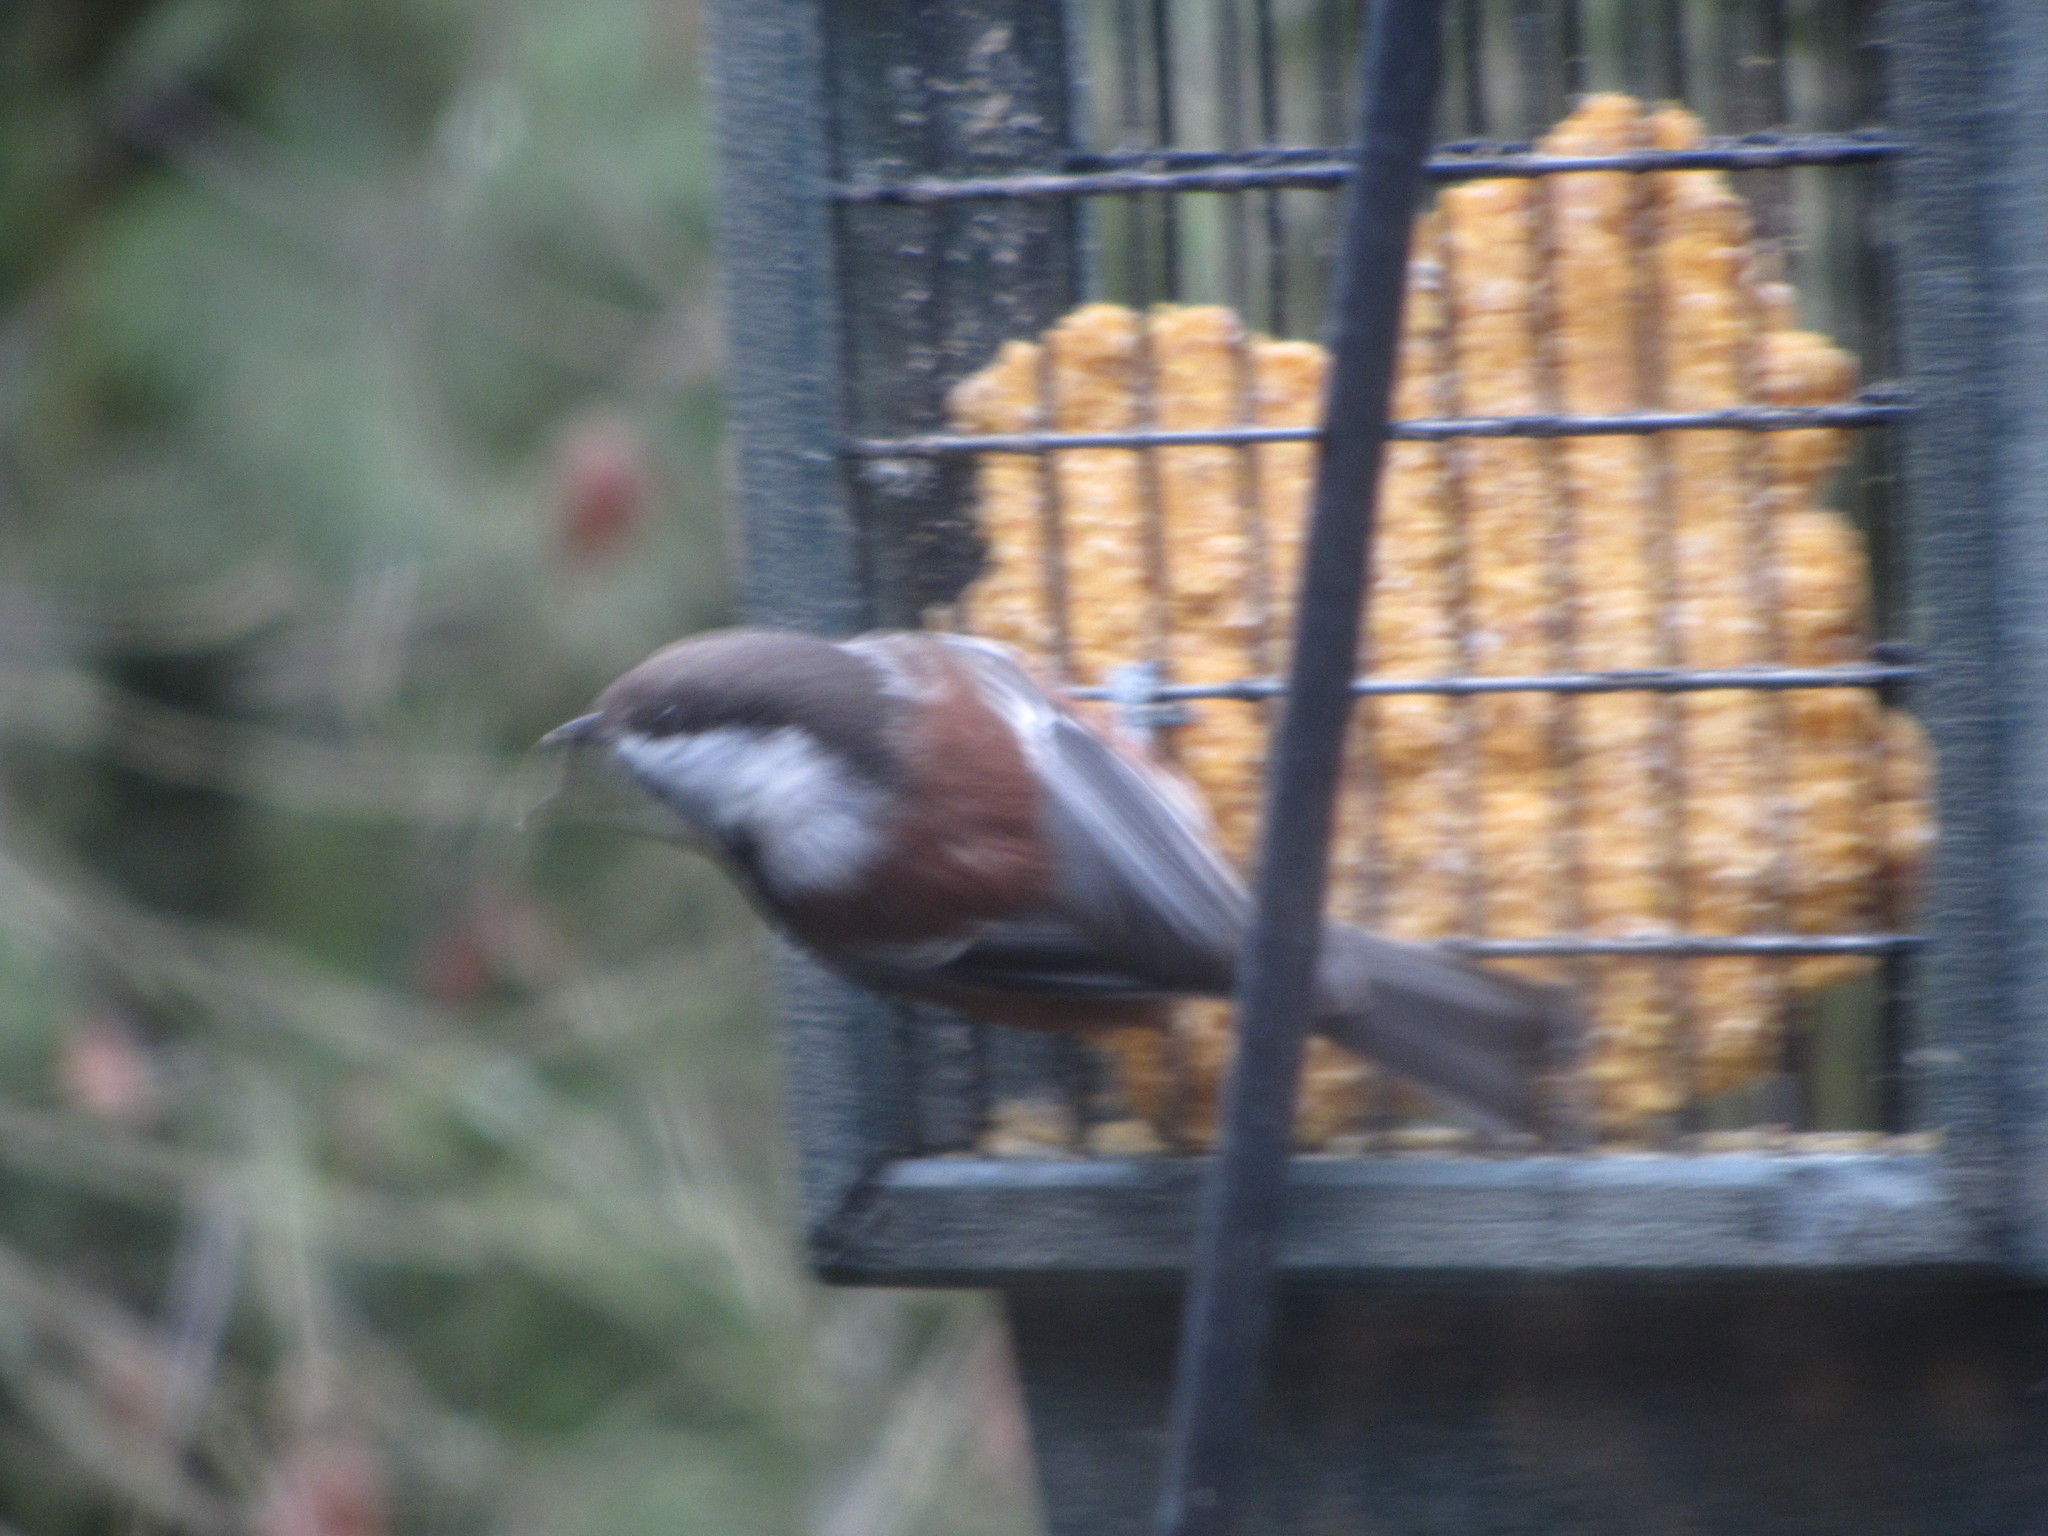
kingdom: Animalia
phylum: Chordata
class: Aves
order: Passeriformes
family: Paridae
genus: Poecile
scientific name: Poecile rufescens
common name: Chestnut-backed chickadee
